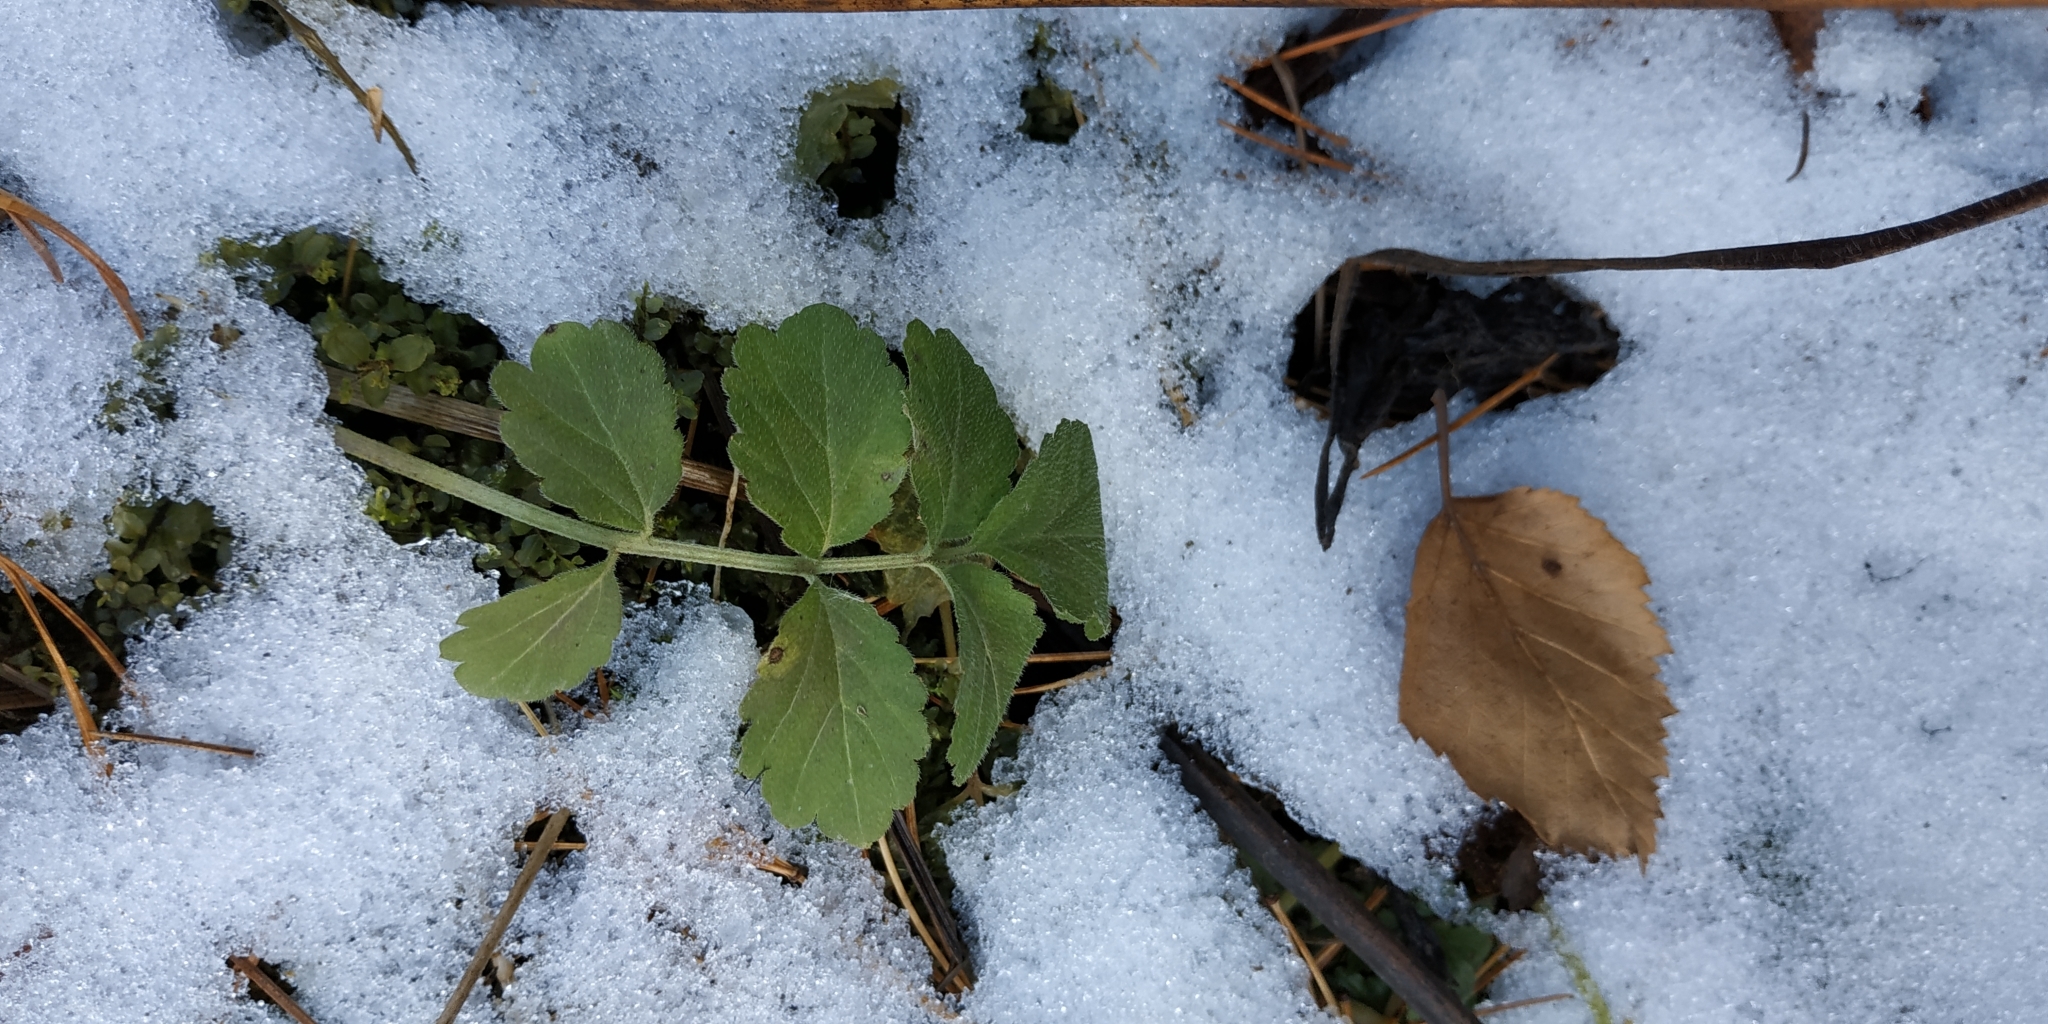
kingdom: Plantae
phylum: Tracheophyta
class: Magnoliopsida
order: Brassicales
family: Brassicaceae
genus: Cardamine
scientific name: Cardamine macrophylla
